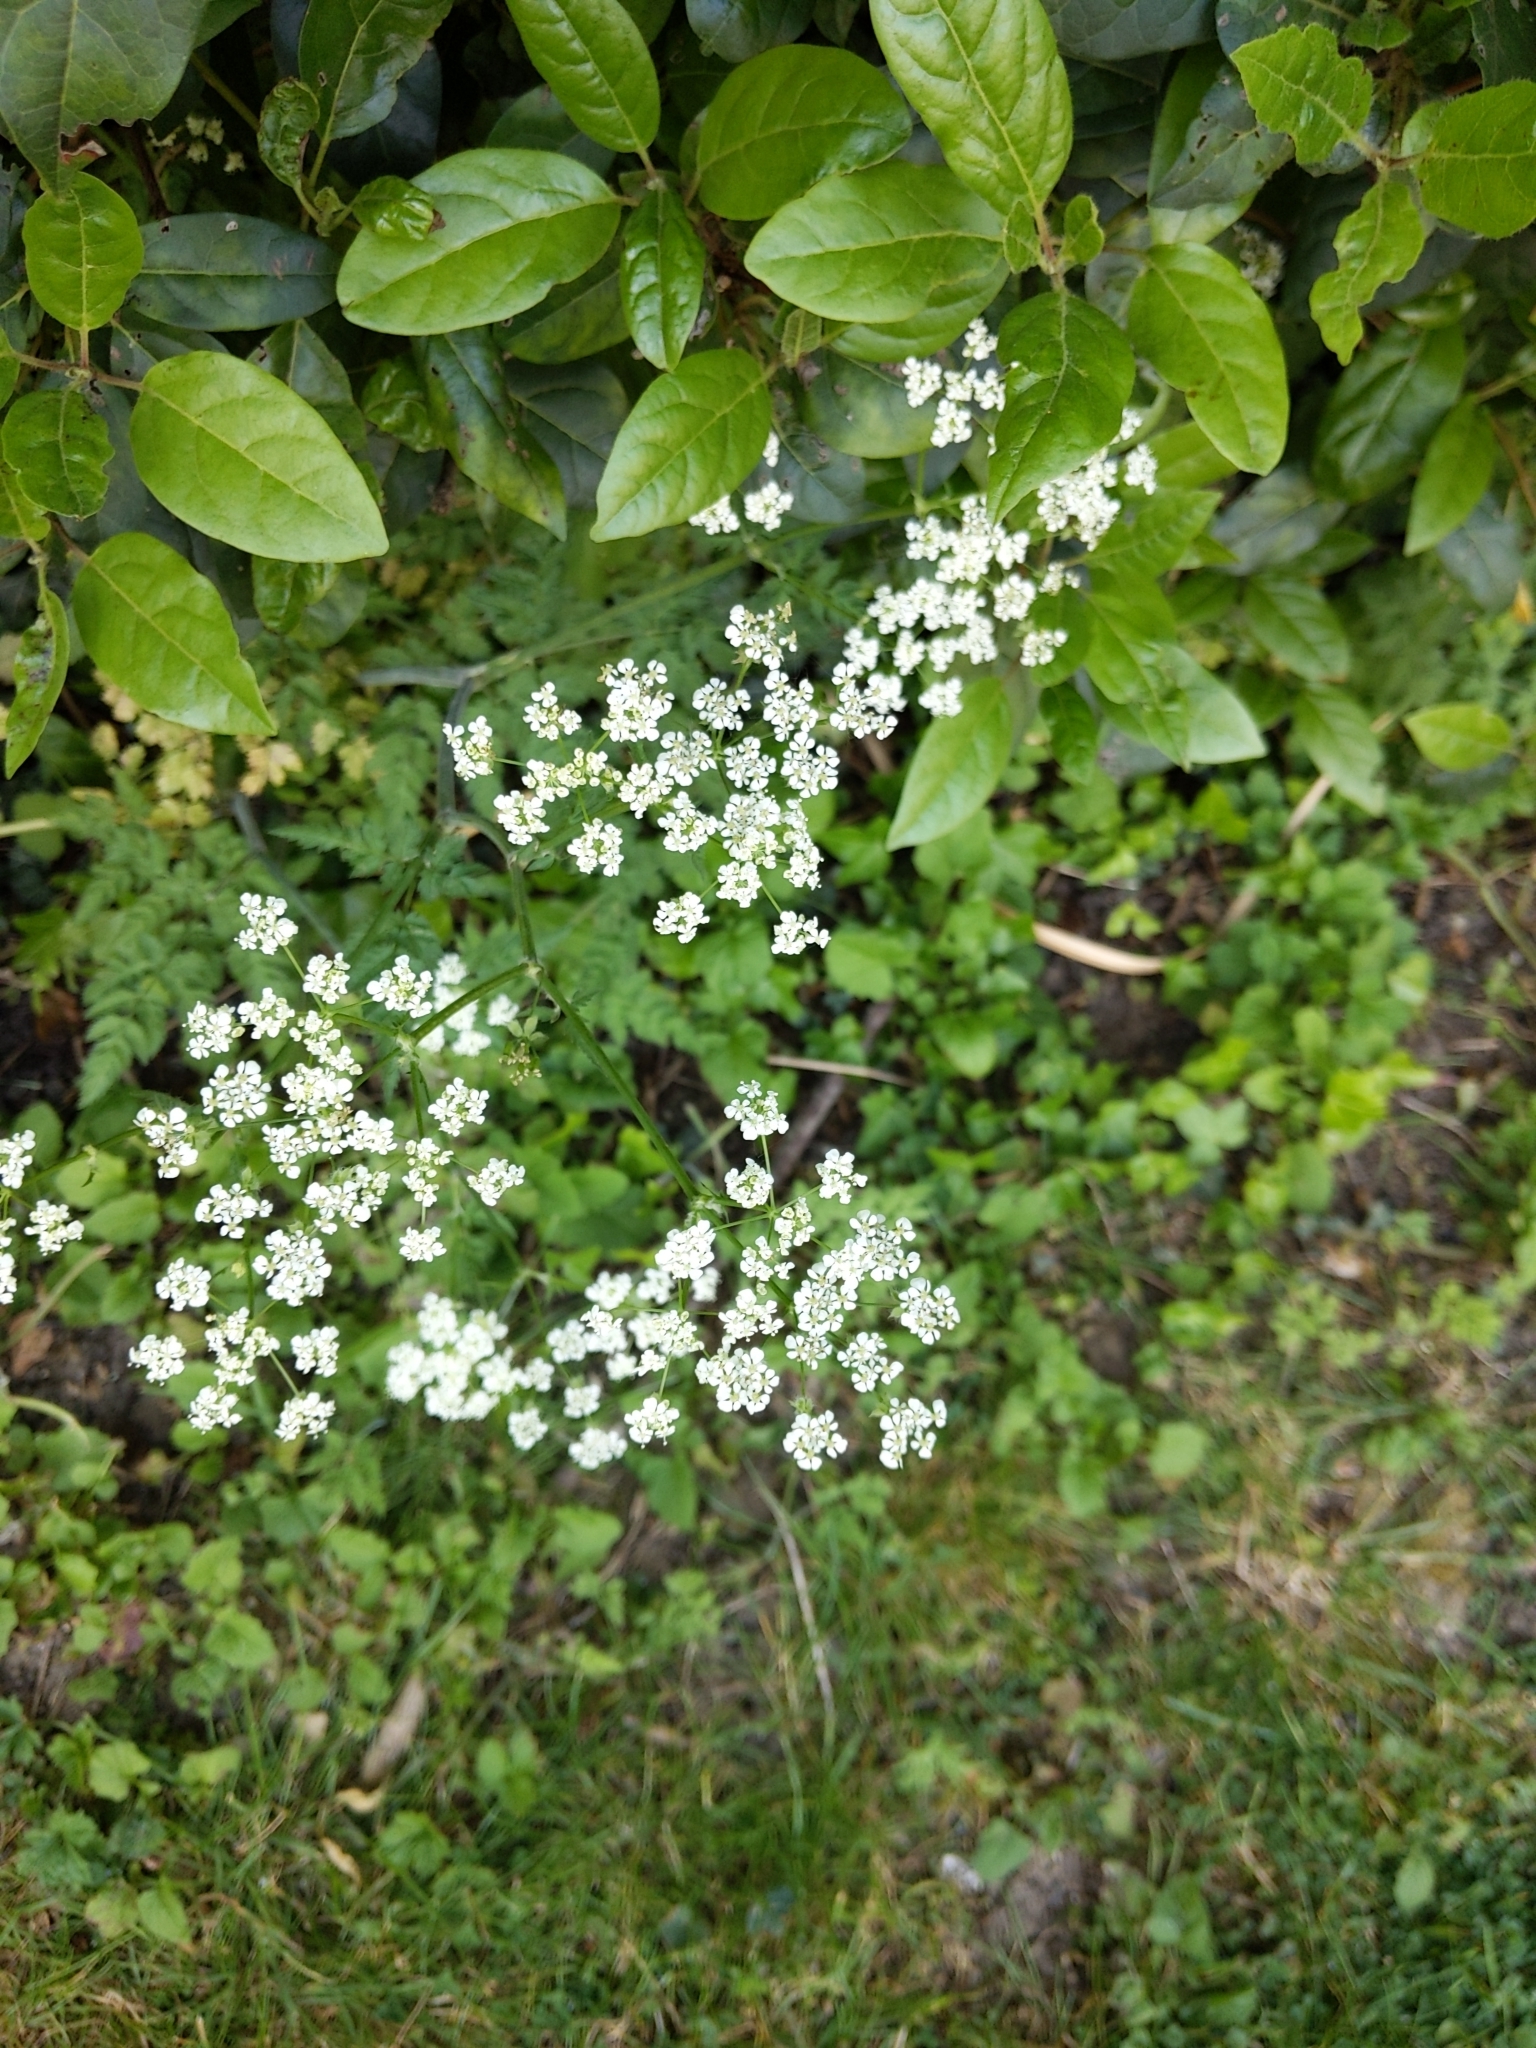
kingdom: Plantae
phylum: Tracheophyta
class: Magnoliopsida
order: Apiales
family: Apiaceae
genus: Anthriscus
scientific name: Anthriscus sylvestris
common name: Cow parsley
